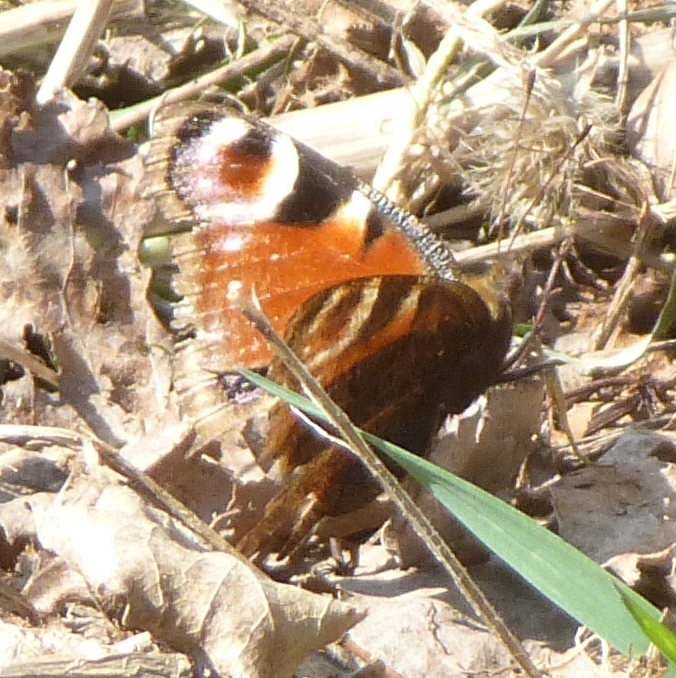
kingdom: Animalia
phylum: Arthropoda
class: Insecta
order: Lepidoptera
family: Nymphalidae
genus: Aglais
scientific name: Aglais io
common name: Peacock
